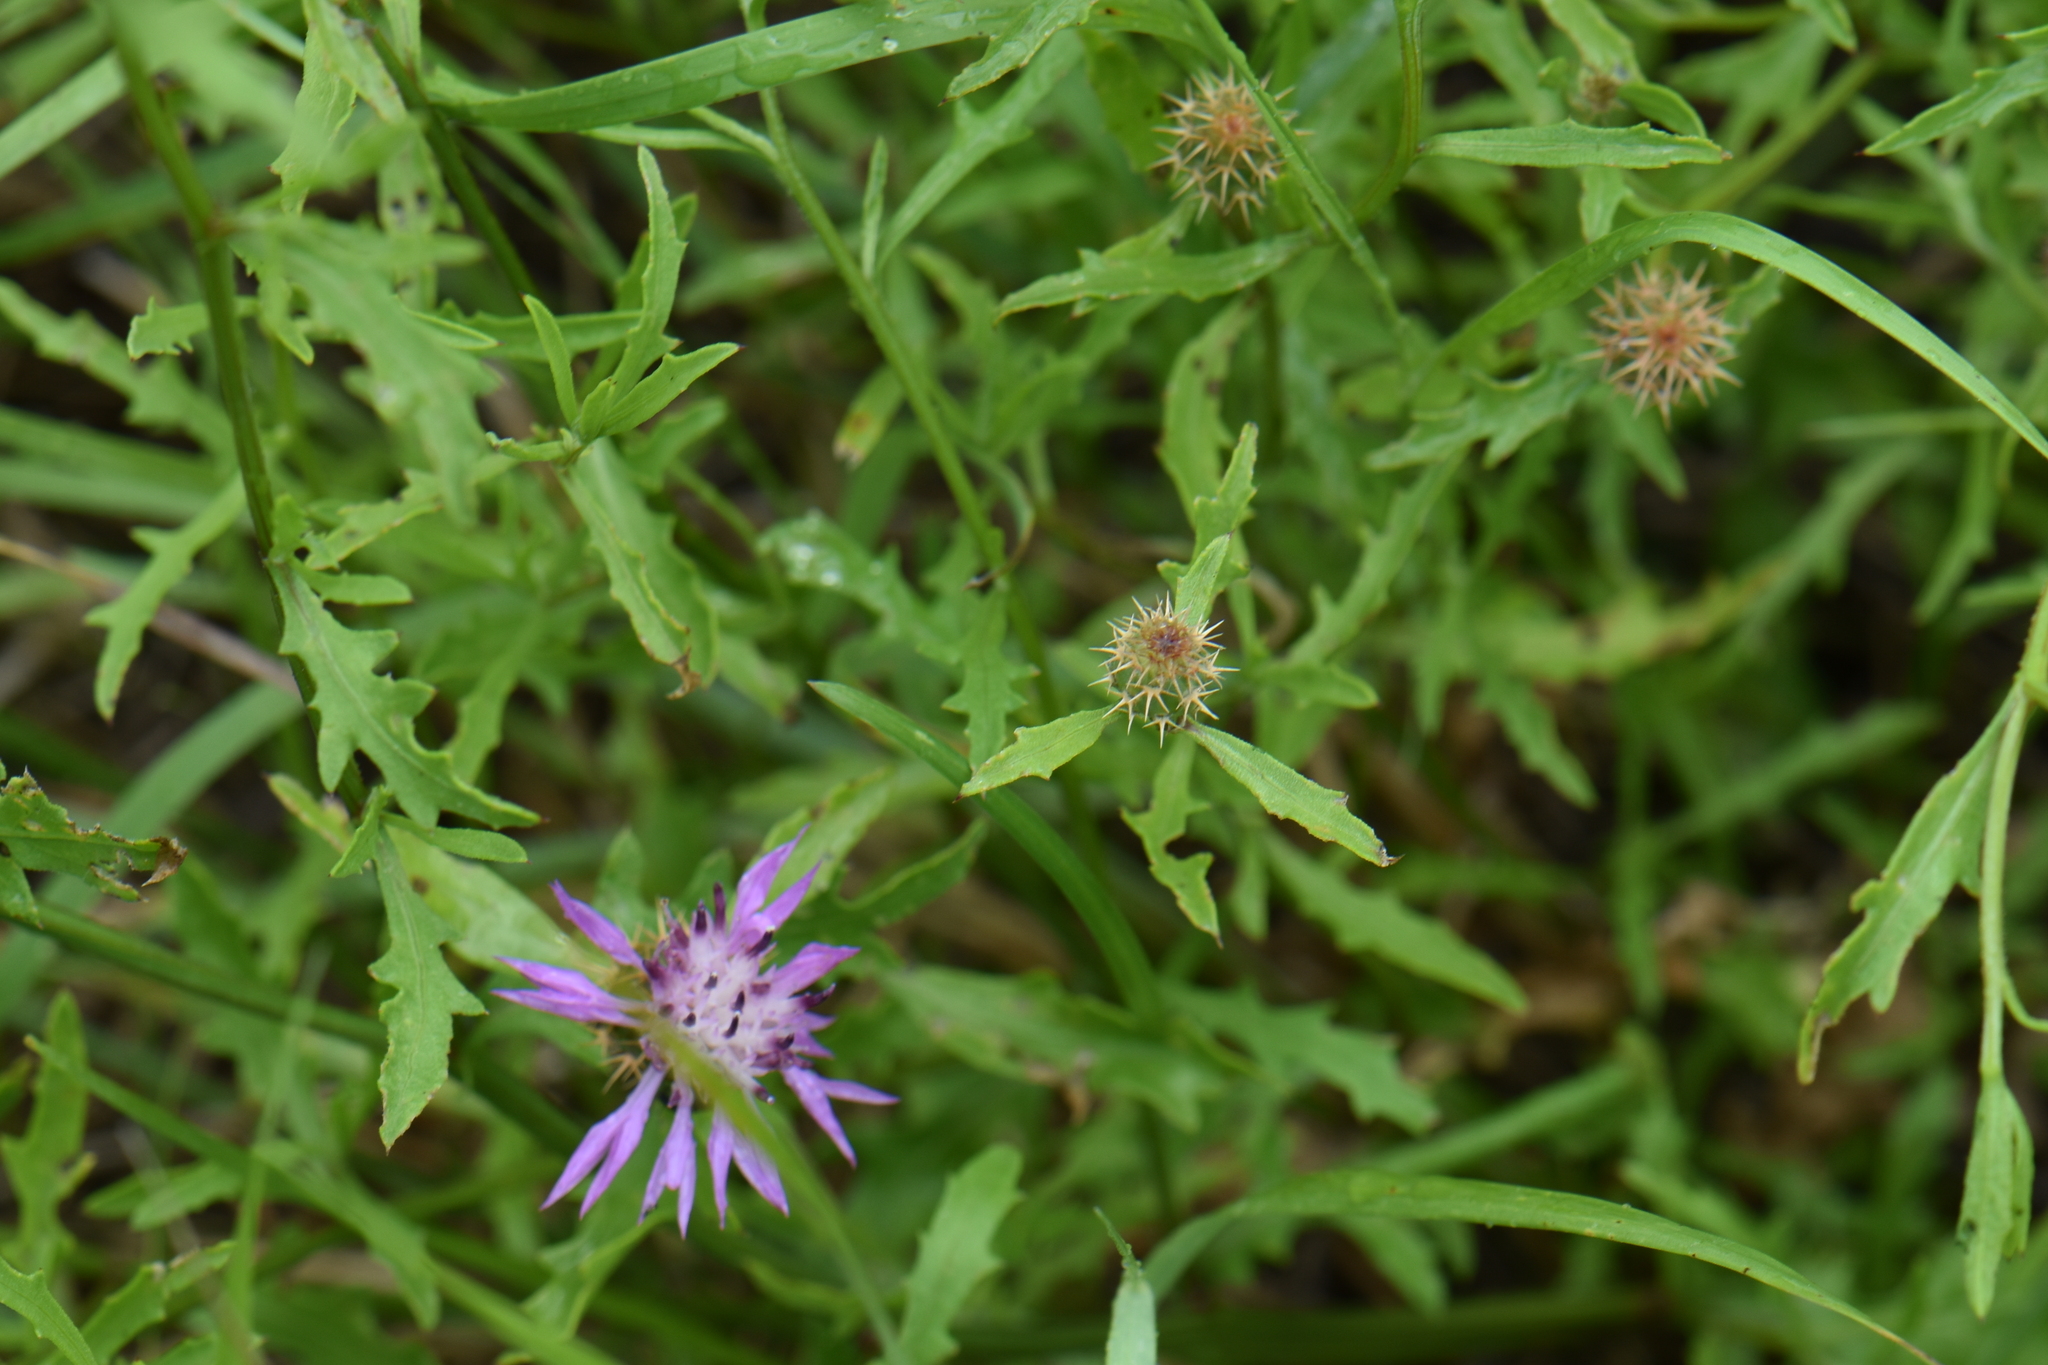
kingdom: Plantae
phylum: Tracheophyta
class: Magnoliopsida
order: Asterales
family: Asteraceae
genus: Centaurea
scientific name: Centaurea aspera
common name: Rough star-thistle
